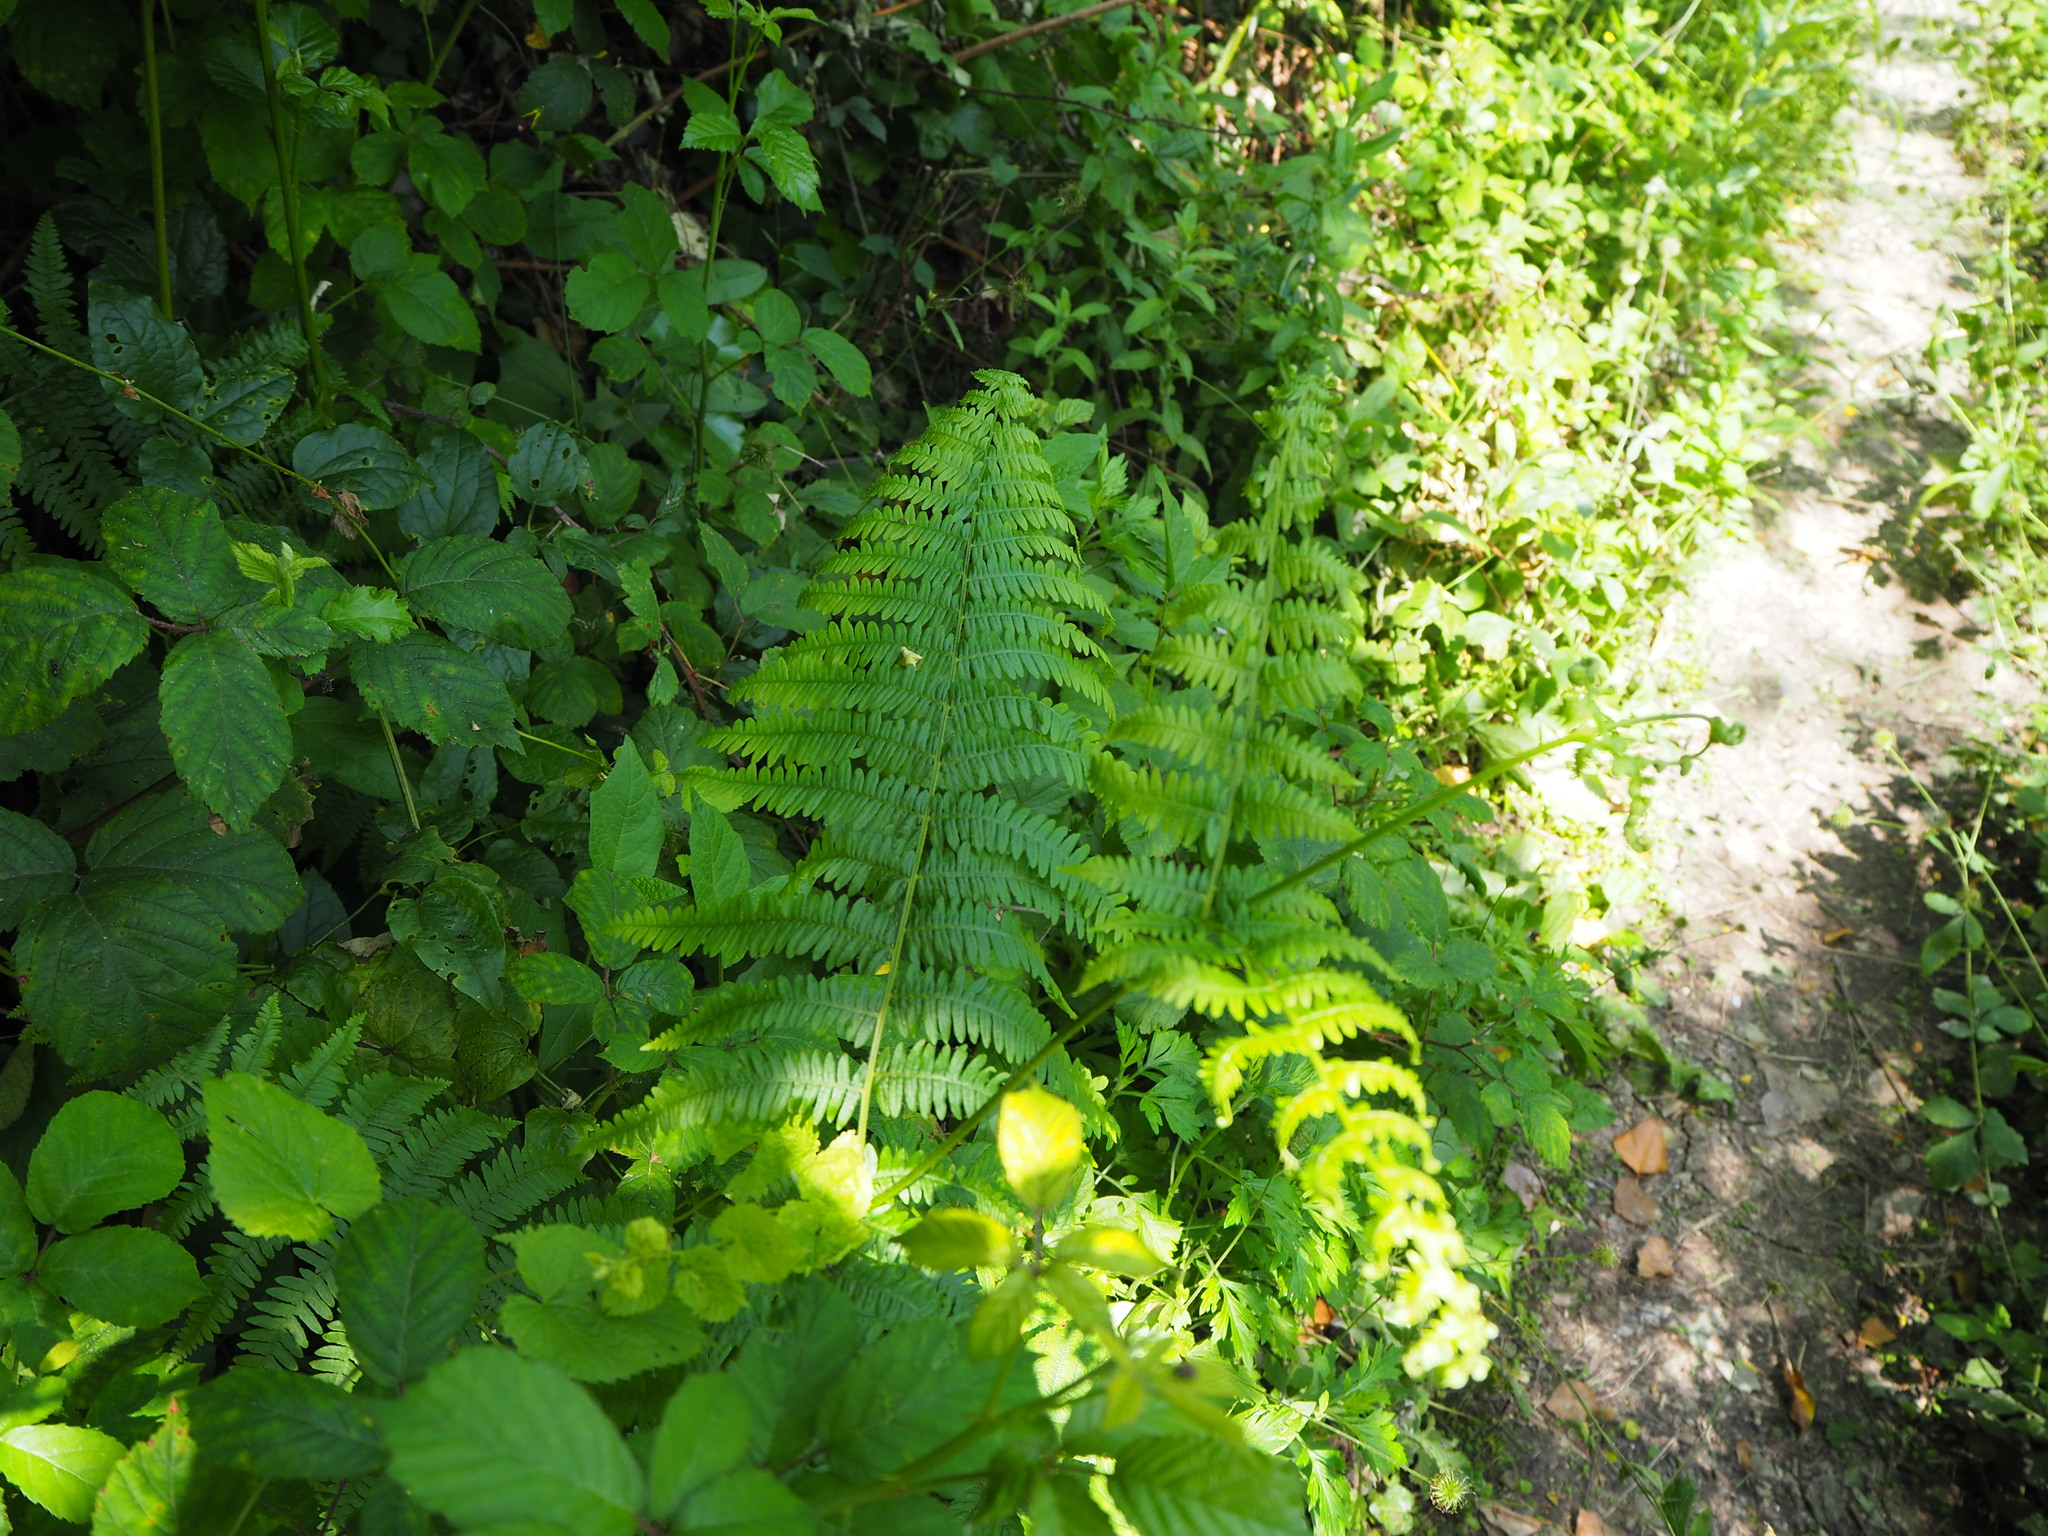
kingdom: Plantae
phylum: Tracheophyta
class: Polypodiopsida
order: Polypodiales
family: Dennstaedtiaceae
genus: Pteridium
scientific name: Pteridium aquilinum
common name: Bracken
